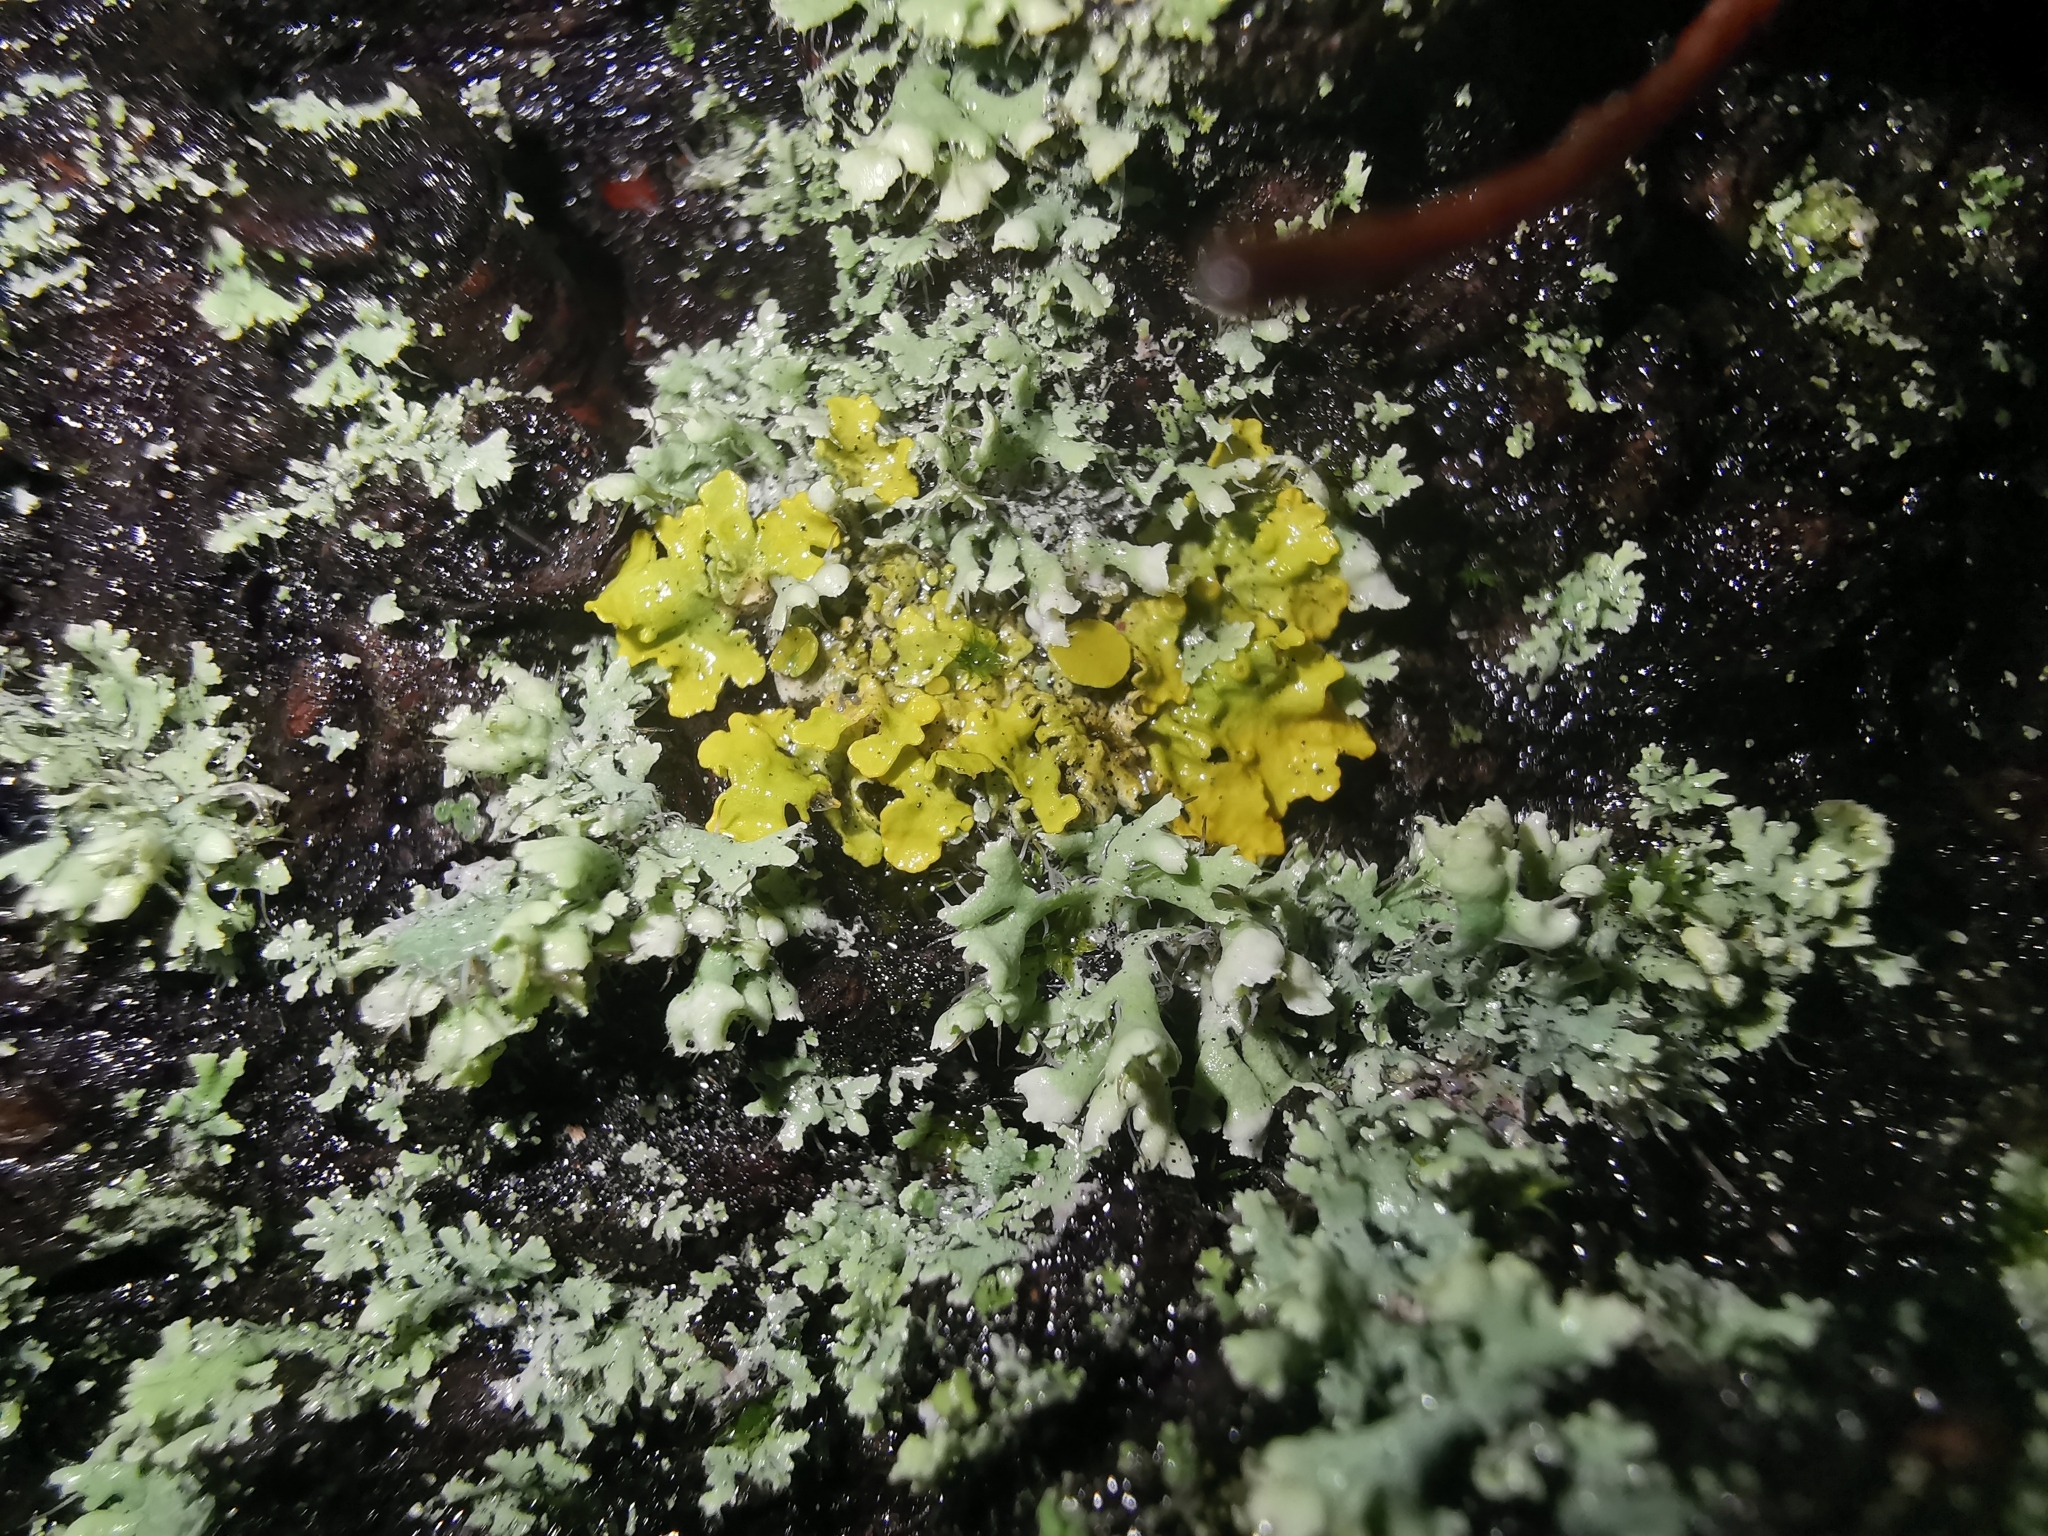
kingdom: Fungi
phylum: Ascomycota
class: Lecanoromycetes
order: Teloschistales
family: Teloschistaceae
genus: Xanthoria
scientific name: Xanthoria parietina
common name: Common orange lichen
